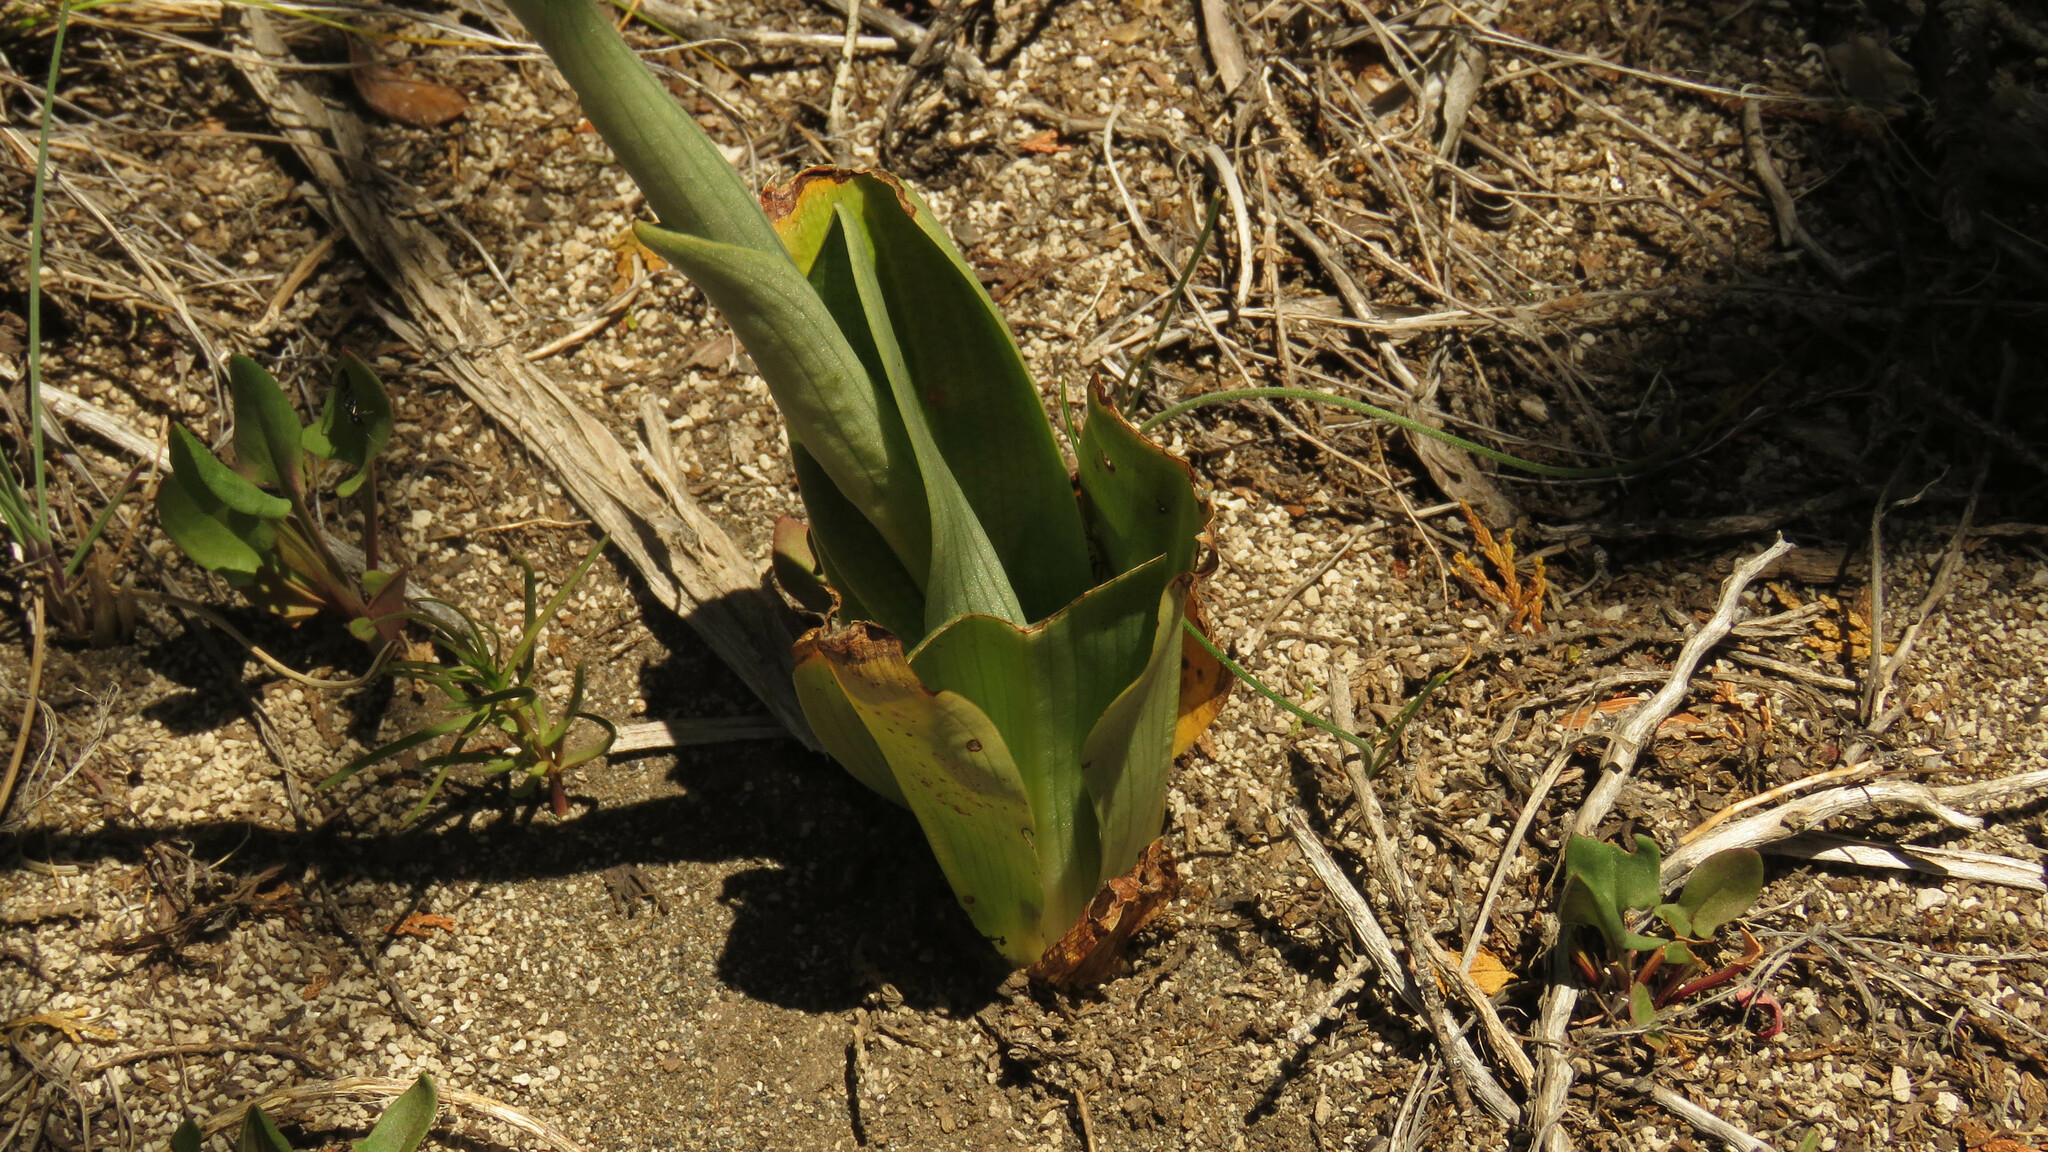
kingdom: Plantae
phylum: Tracheophyta
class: Liliopsida
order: Asparagales
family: Orchidaceae
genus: Gavilea
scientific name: Gavilea glandulifera
